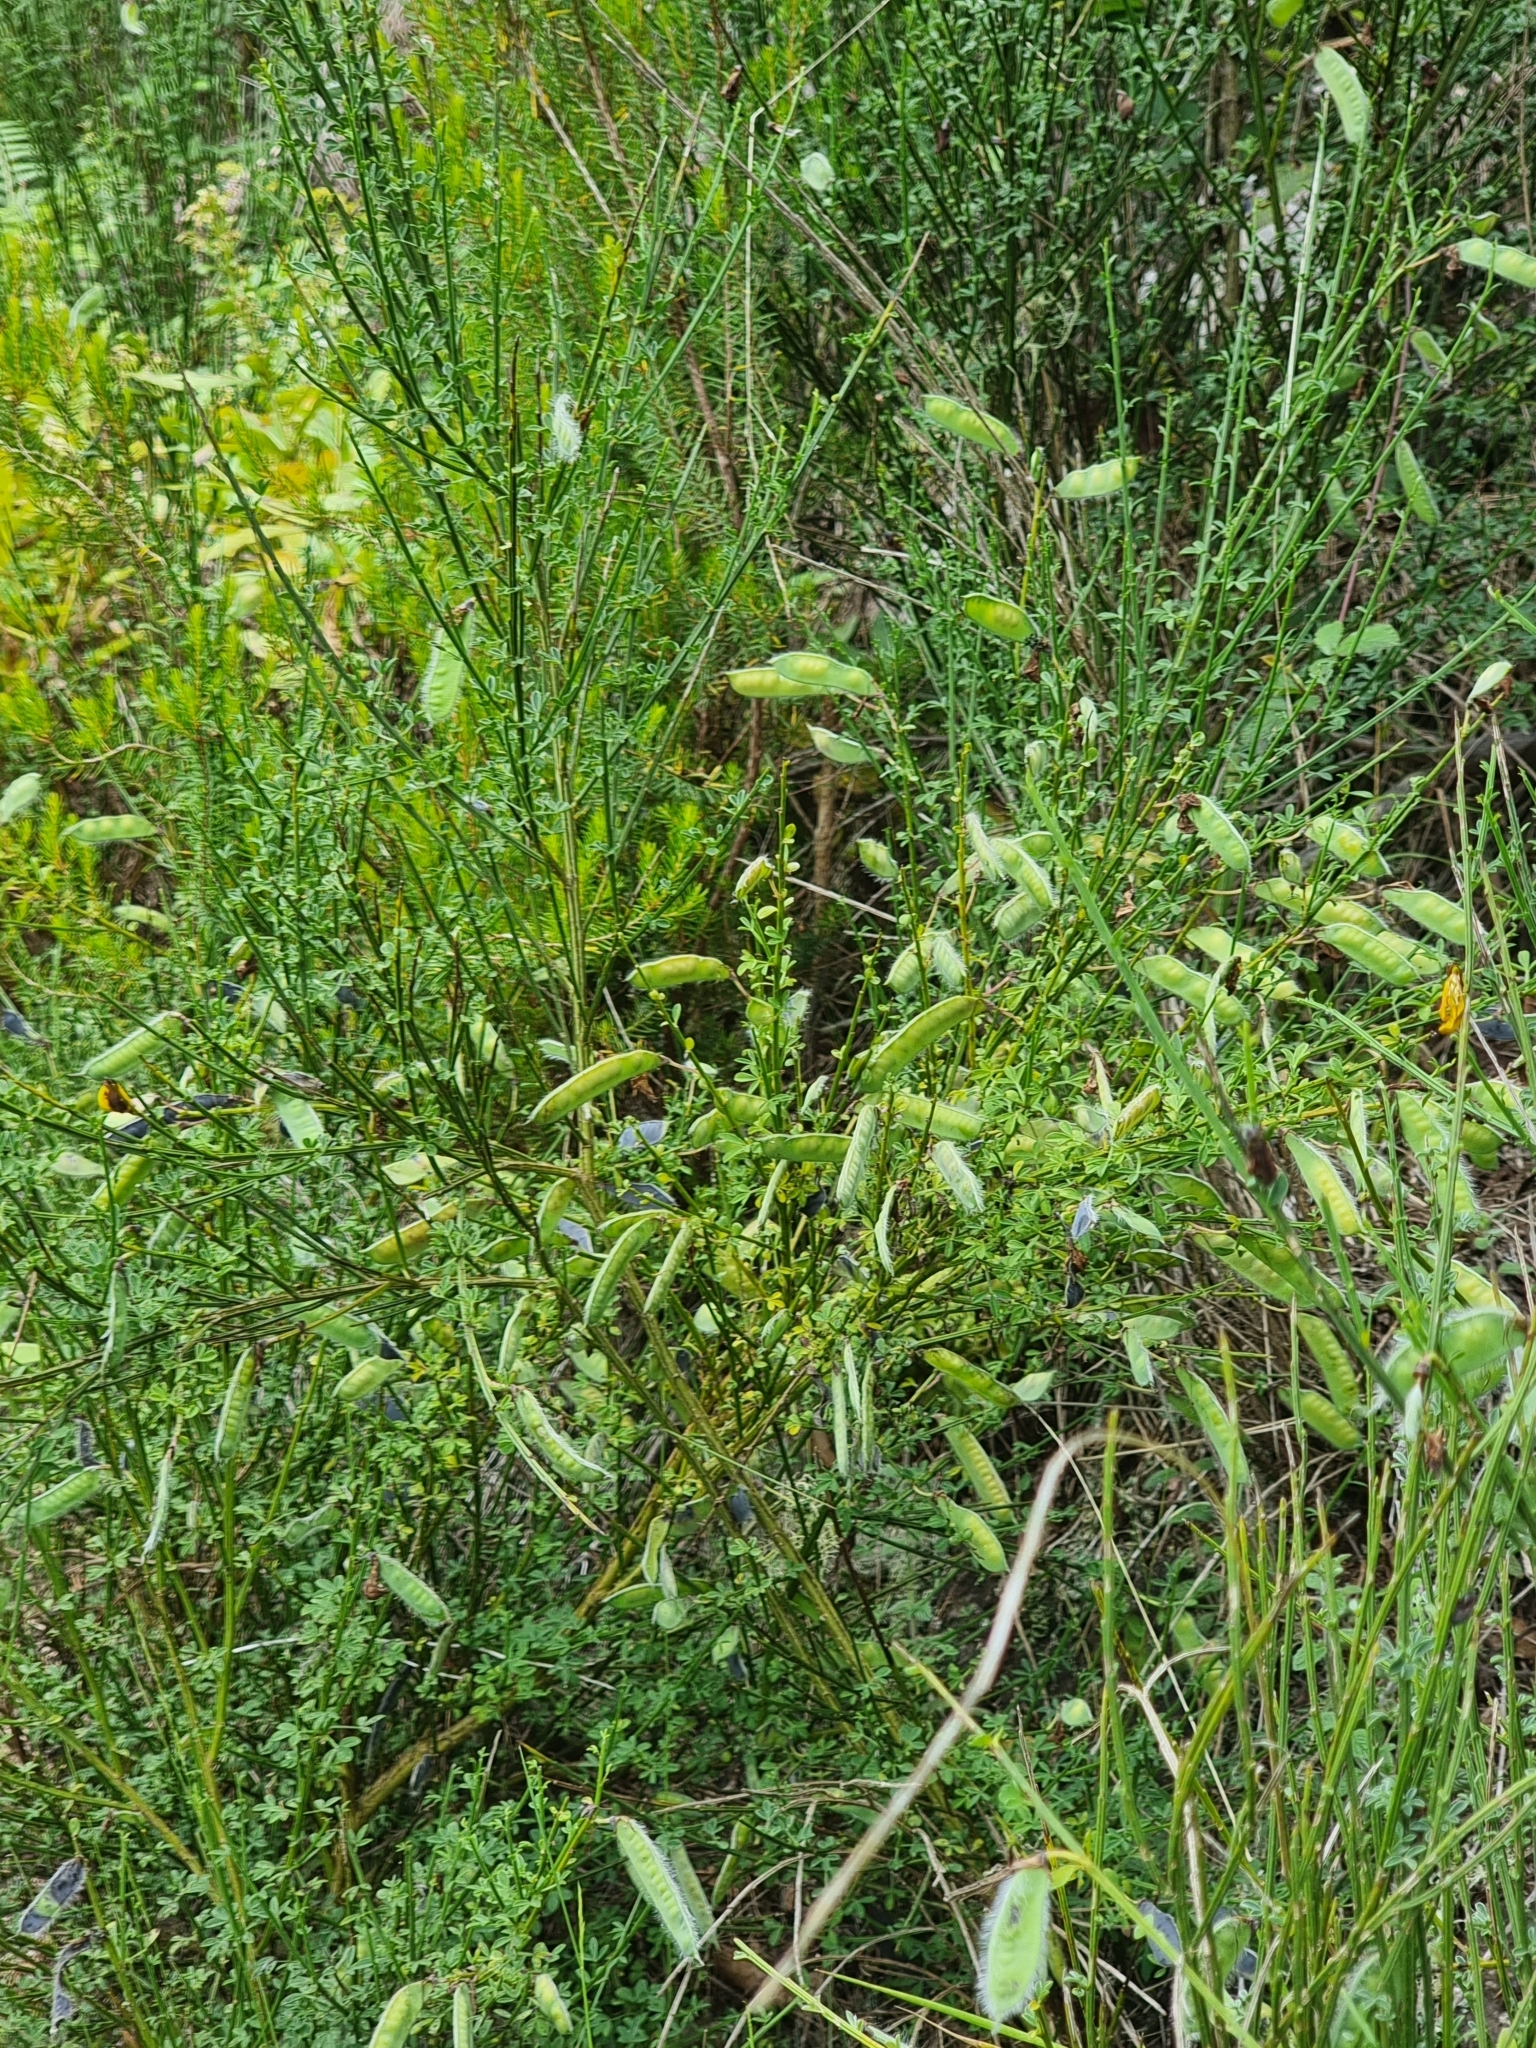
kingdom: Plantae
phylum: Tracheophyta
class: Magnoliopsida
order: Fabales
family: Fabaceae
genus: Cytisus
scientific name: Cytisus scoparius
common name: Scotch broom
